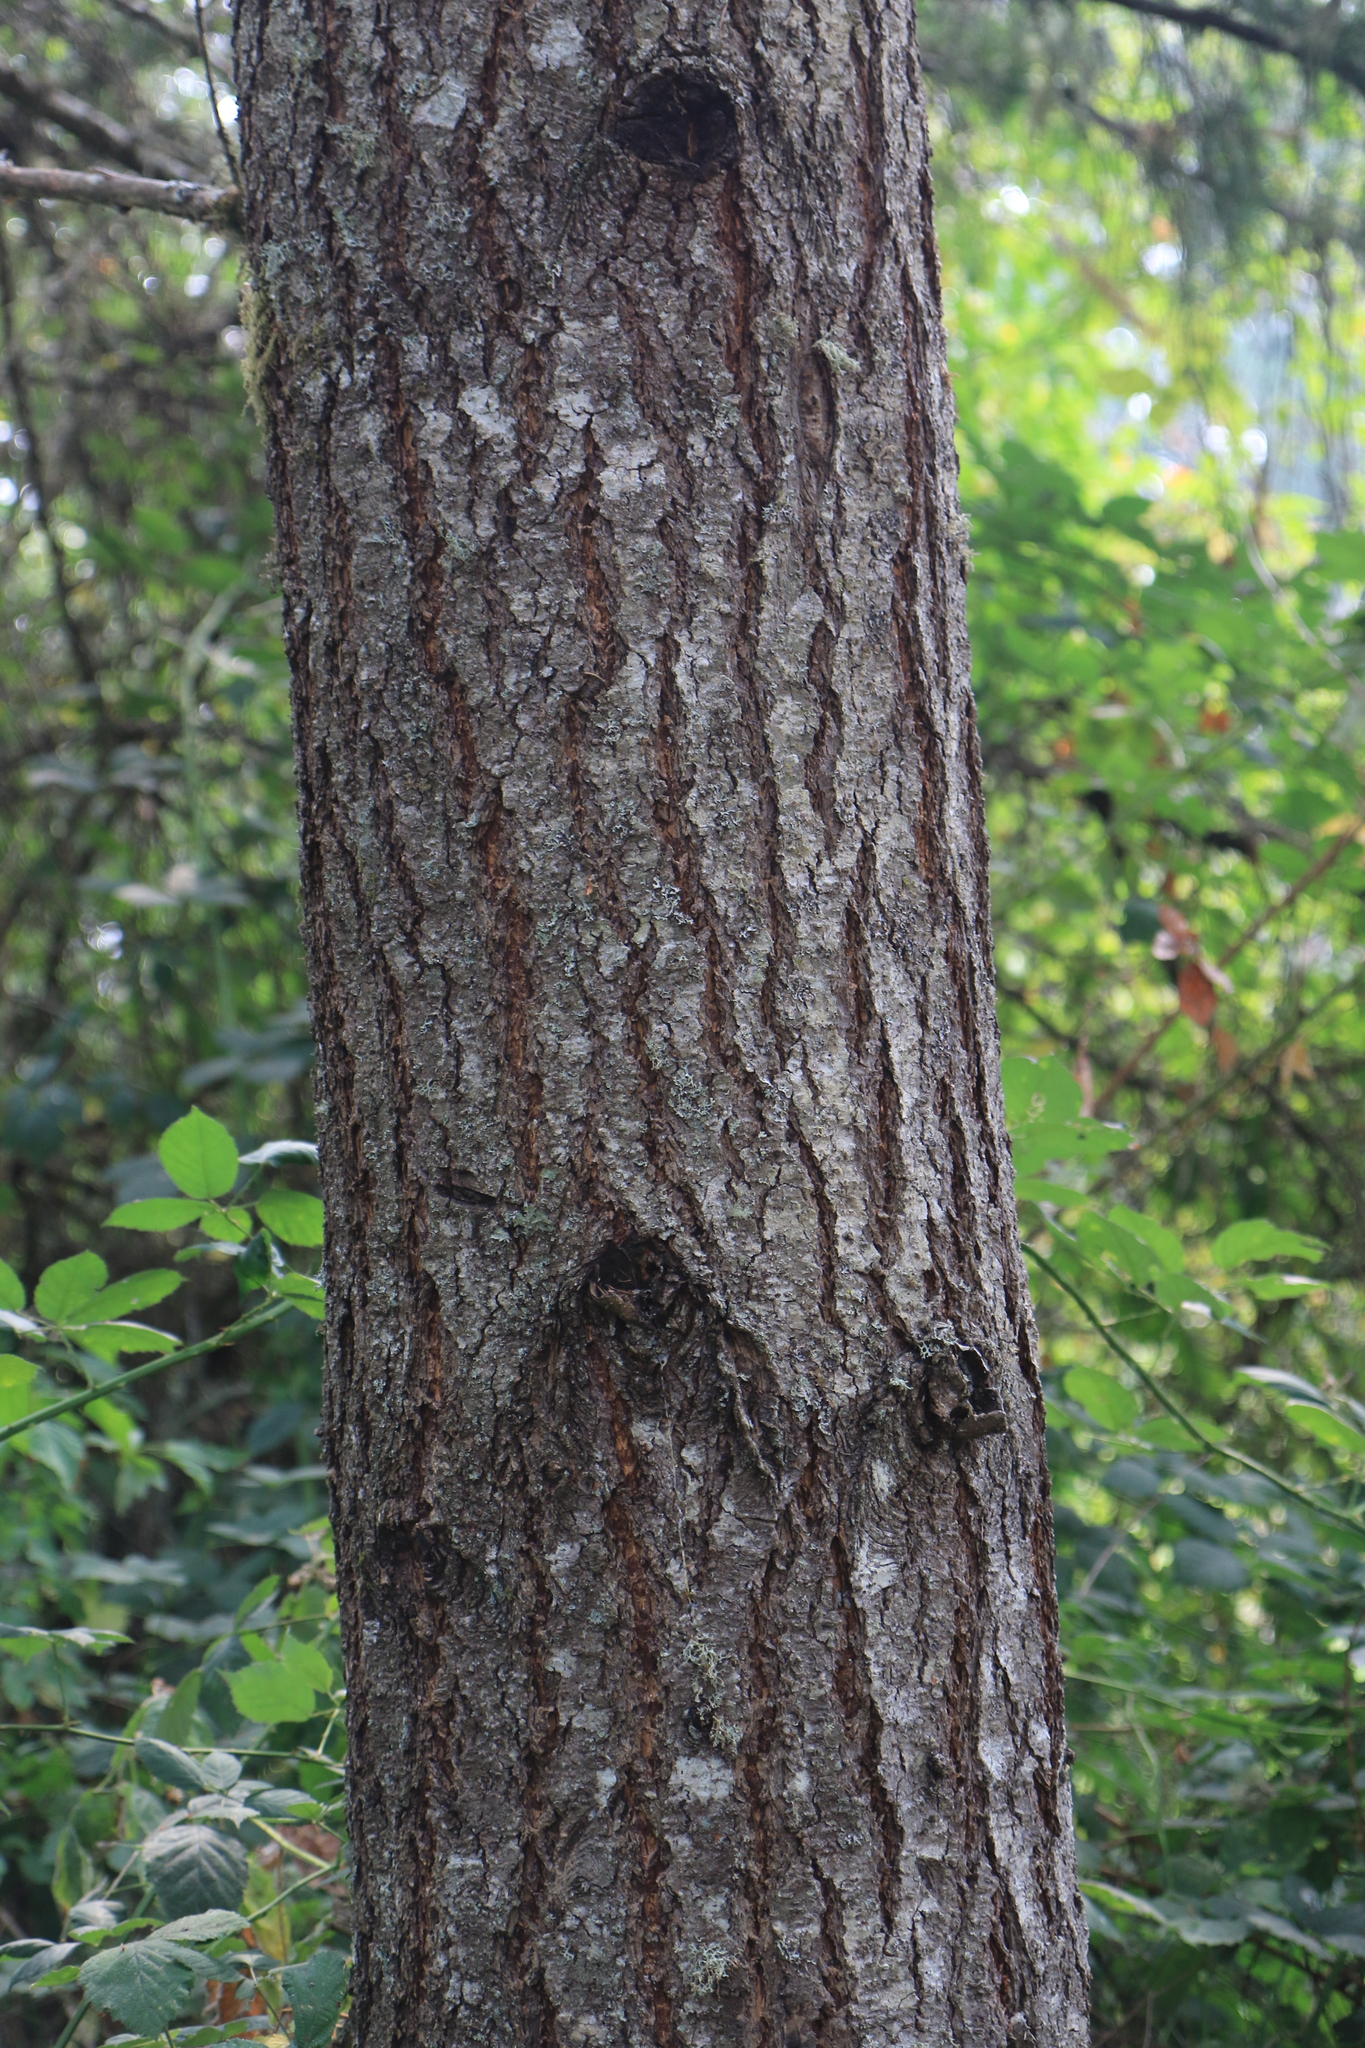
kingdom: Plantae
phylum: Tracheophyta
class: Pinopsida
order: Pinales
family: Pinaceae
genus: Pseudotsuga
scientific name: Pseudotsuga menziesii
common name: Douglas fir
